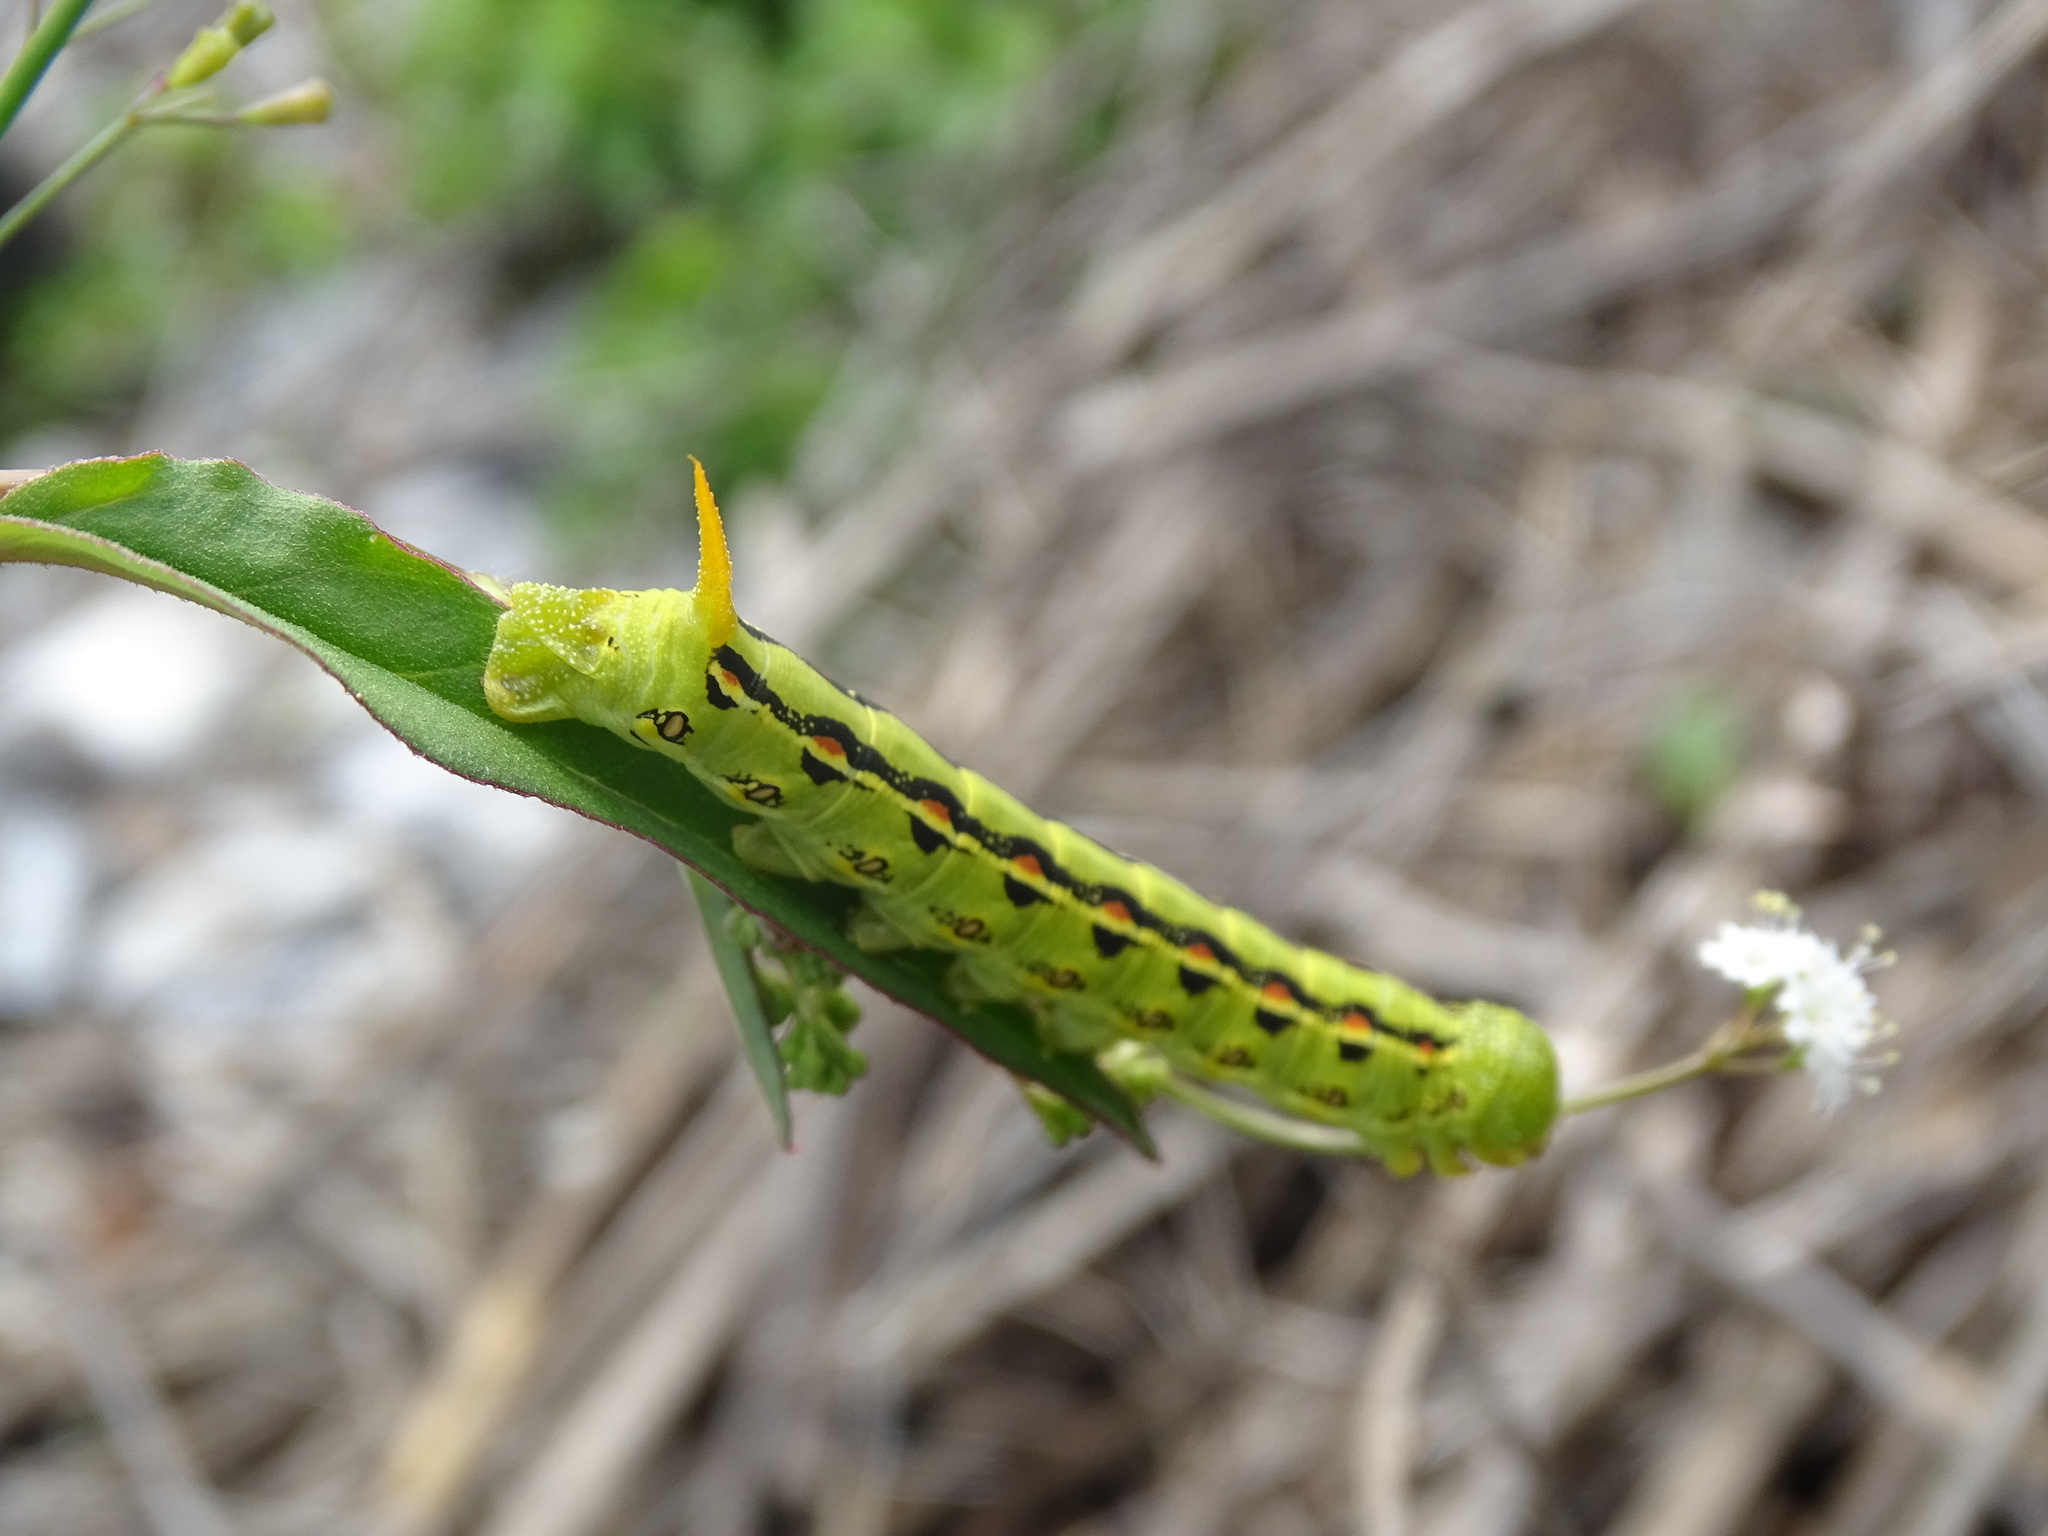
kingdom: Animalia
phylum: Arthropoda
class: Insecta
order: Lepidoptera
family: Sphingidae
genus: Hyles
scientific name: Hyles lineata
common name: White-lined sphinx
